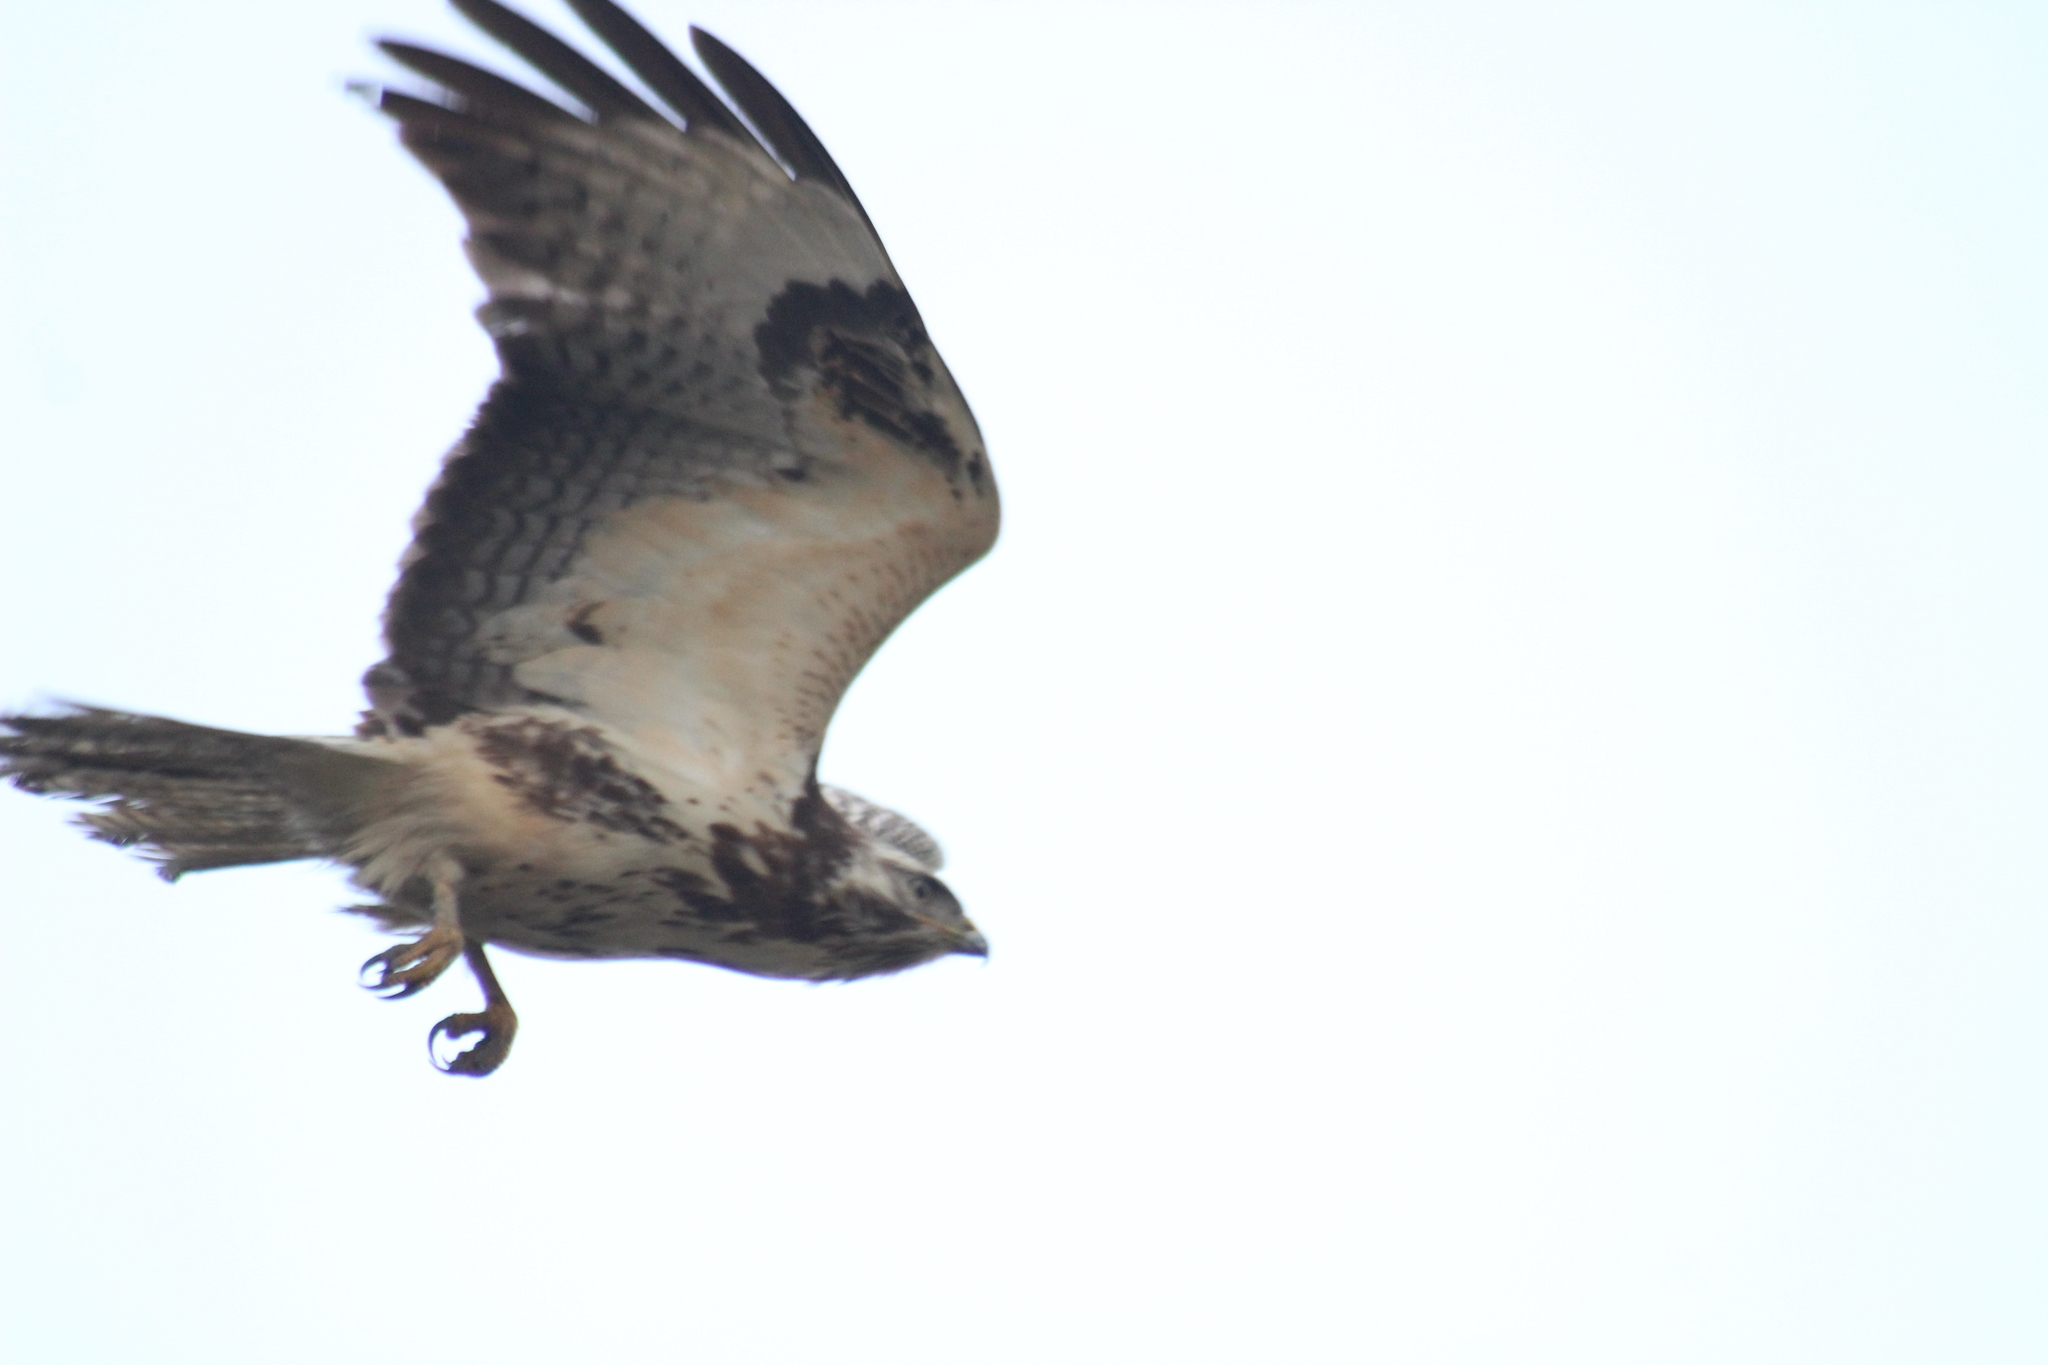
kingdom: Animalia
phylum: Chordata
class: Aves
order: Accipitriformes
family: Accipitridae
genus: Buteo
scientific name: Buteo buteo
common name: Common buzzard
